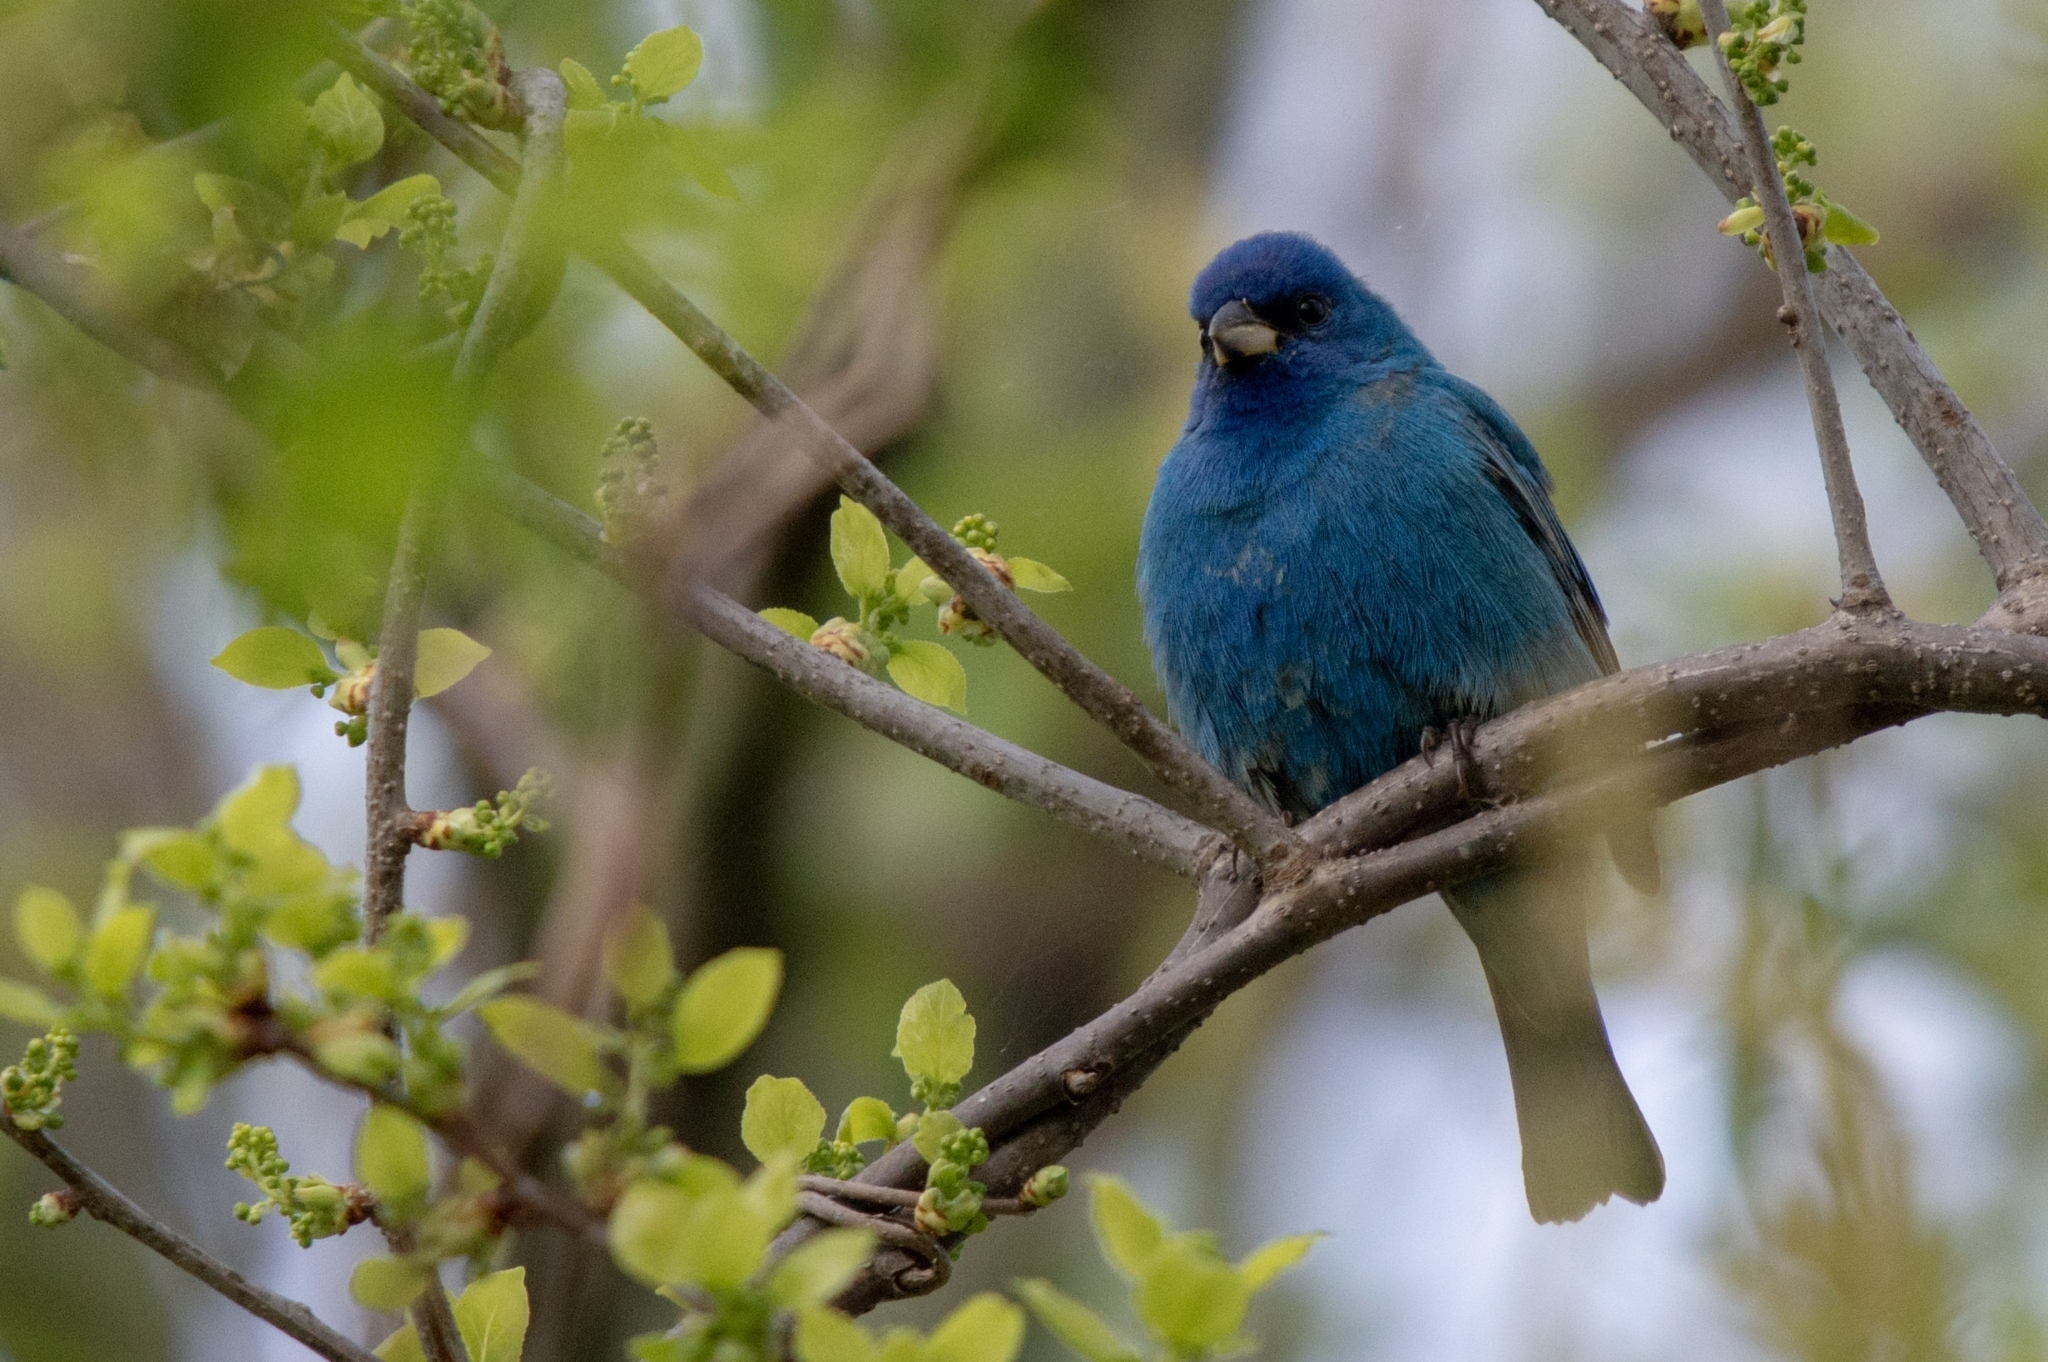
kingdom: Animalia
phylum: Chordata
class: Aves
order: Passeriformes
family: Cardinalidae
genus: Passerina
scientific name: Passerina cyanea
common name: Indigo bunting
